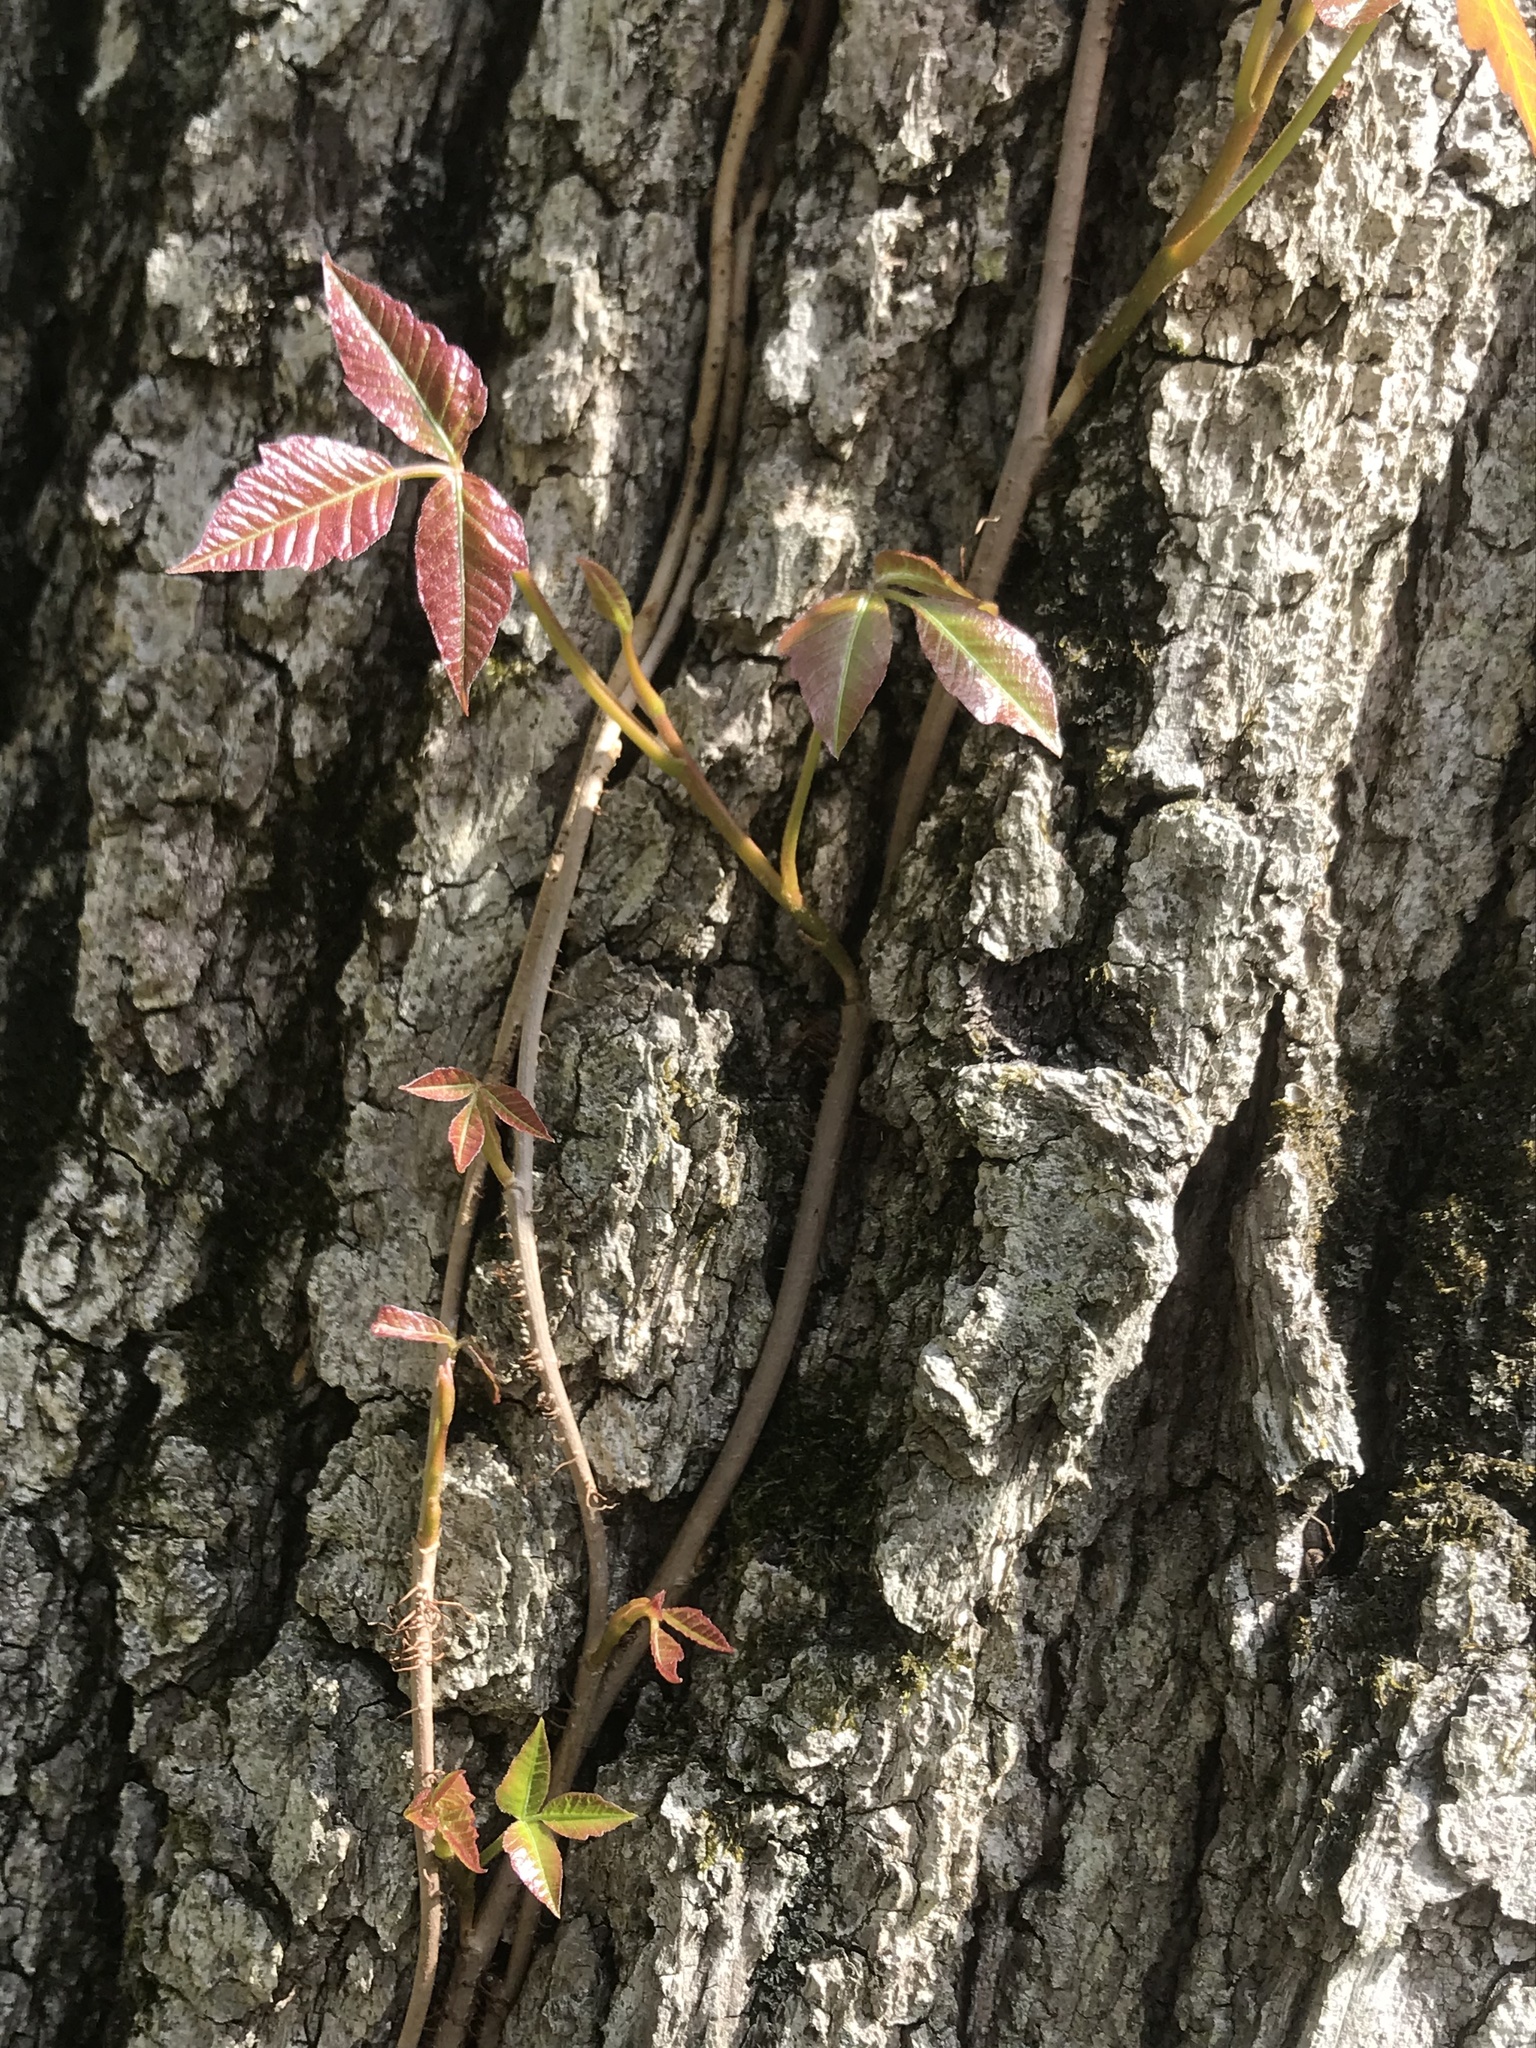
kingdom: Plantae
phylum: Tracheophyta
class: Magnoliopsida
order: Sapindales
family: Anacardiaceae
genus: Toxicodendron
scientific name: Toxicodendron radicans
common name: Poison ivy
